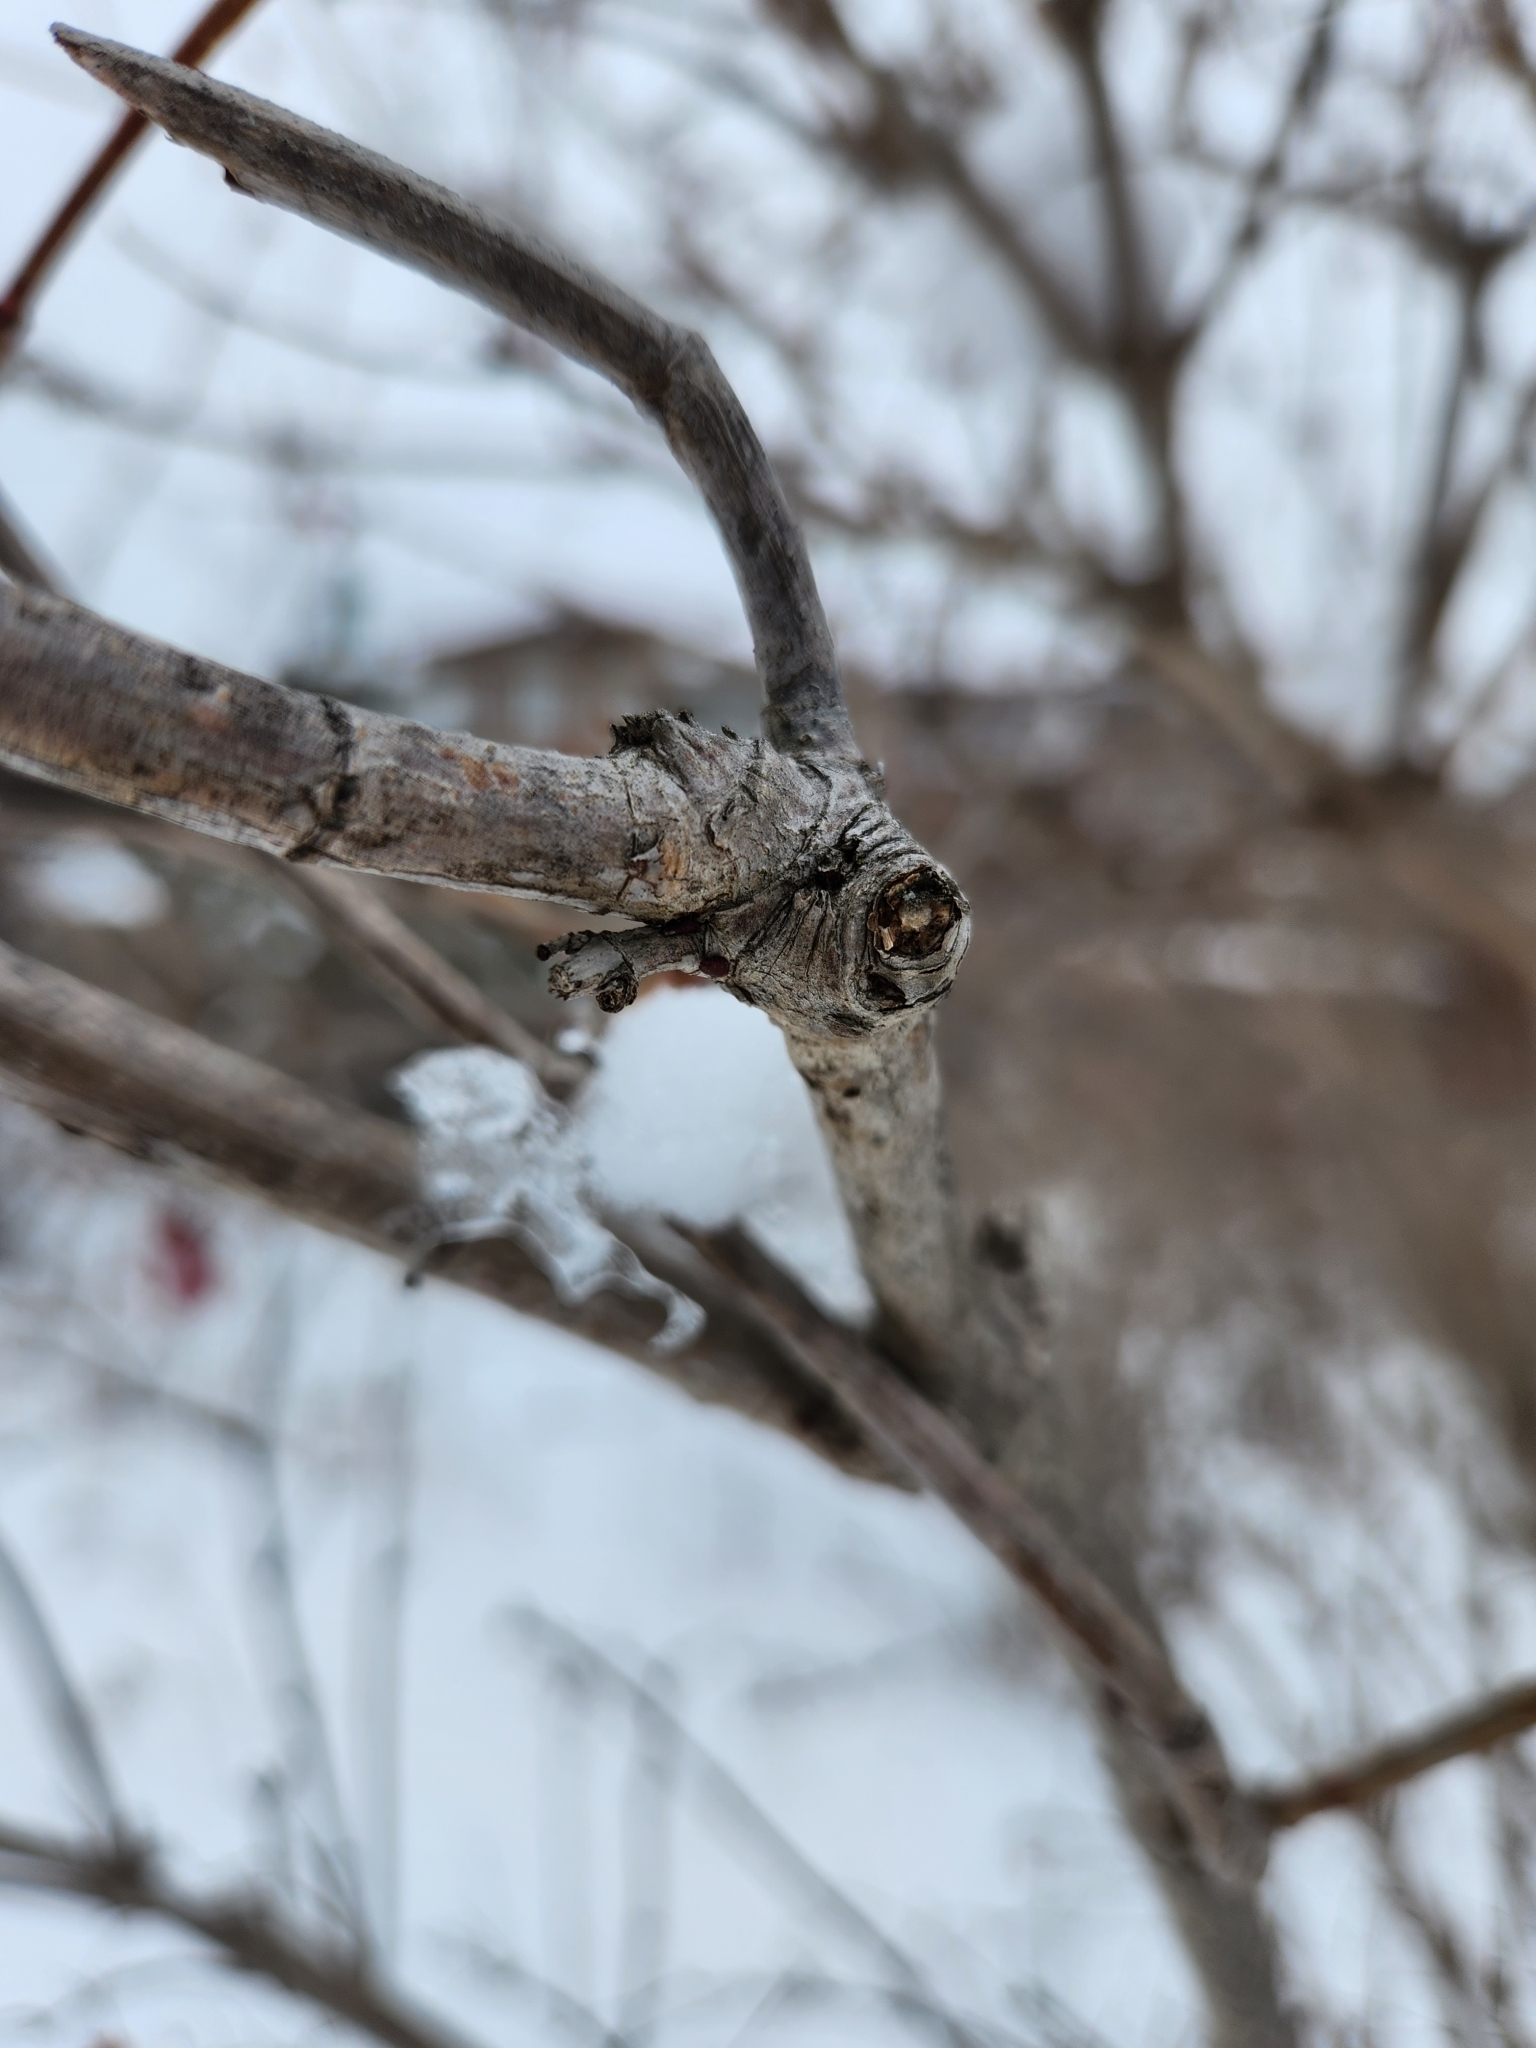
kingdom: Plantae
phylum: Tracheophyta
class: Magnoliopsida
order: Dipsacales
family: Viburnaceae
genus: Viburnum
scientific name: Viburnum opulus
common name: Guelder-rose
